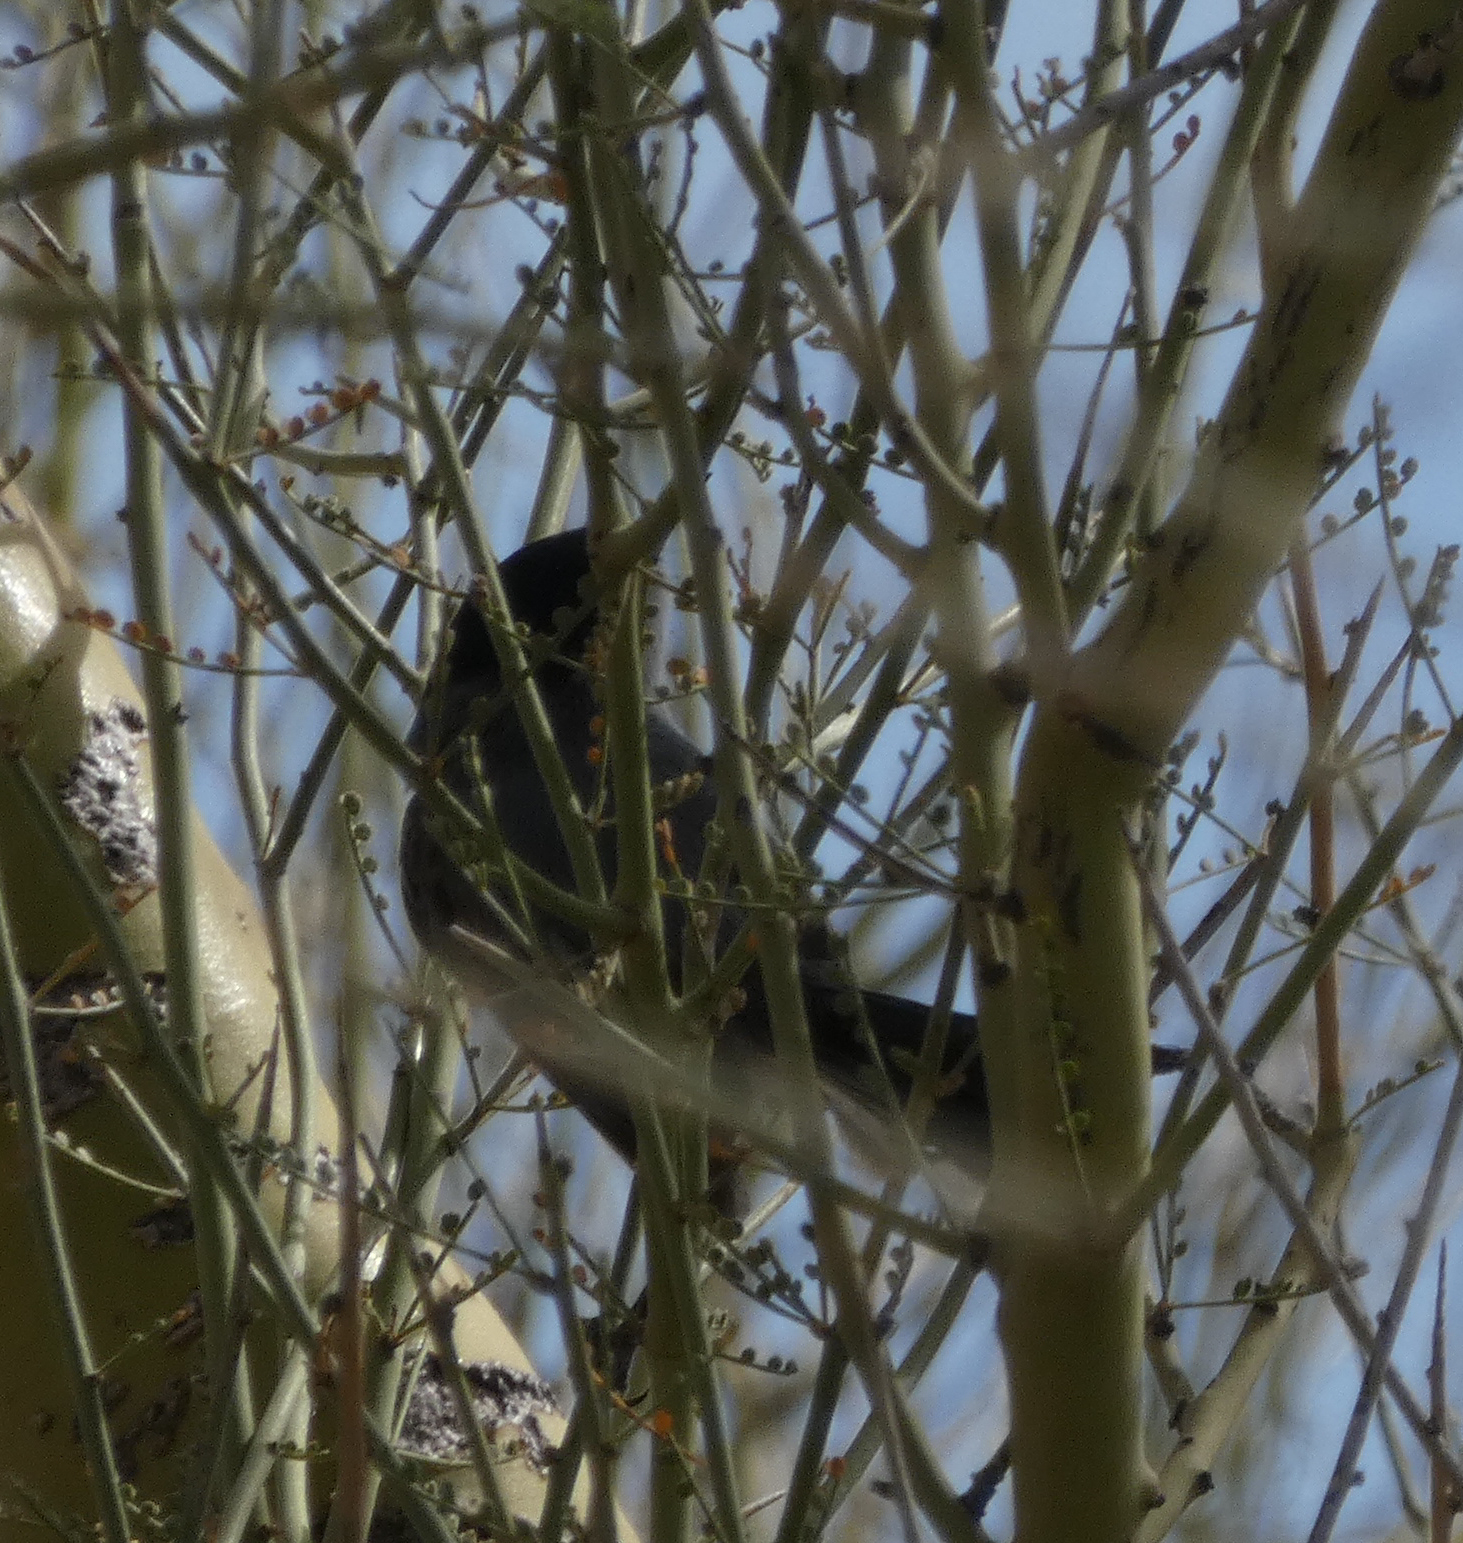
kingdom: Animalia
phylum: Chordata
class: Aves
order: Passeriformes
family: Polioptilidae
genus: Polioptila
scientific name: Polioptila melanura
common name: Black-tailed gnatcatcher
